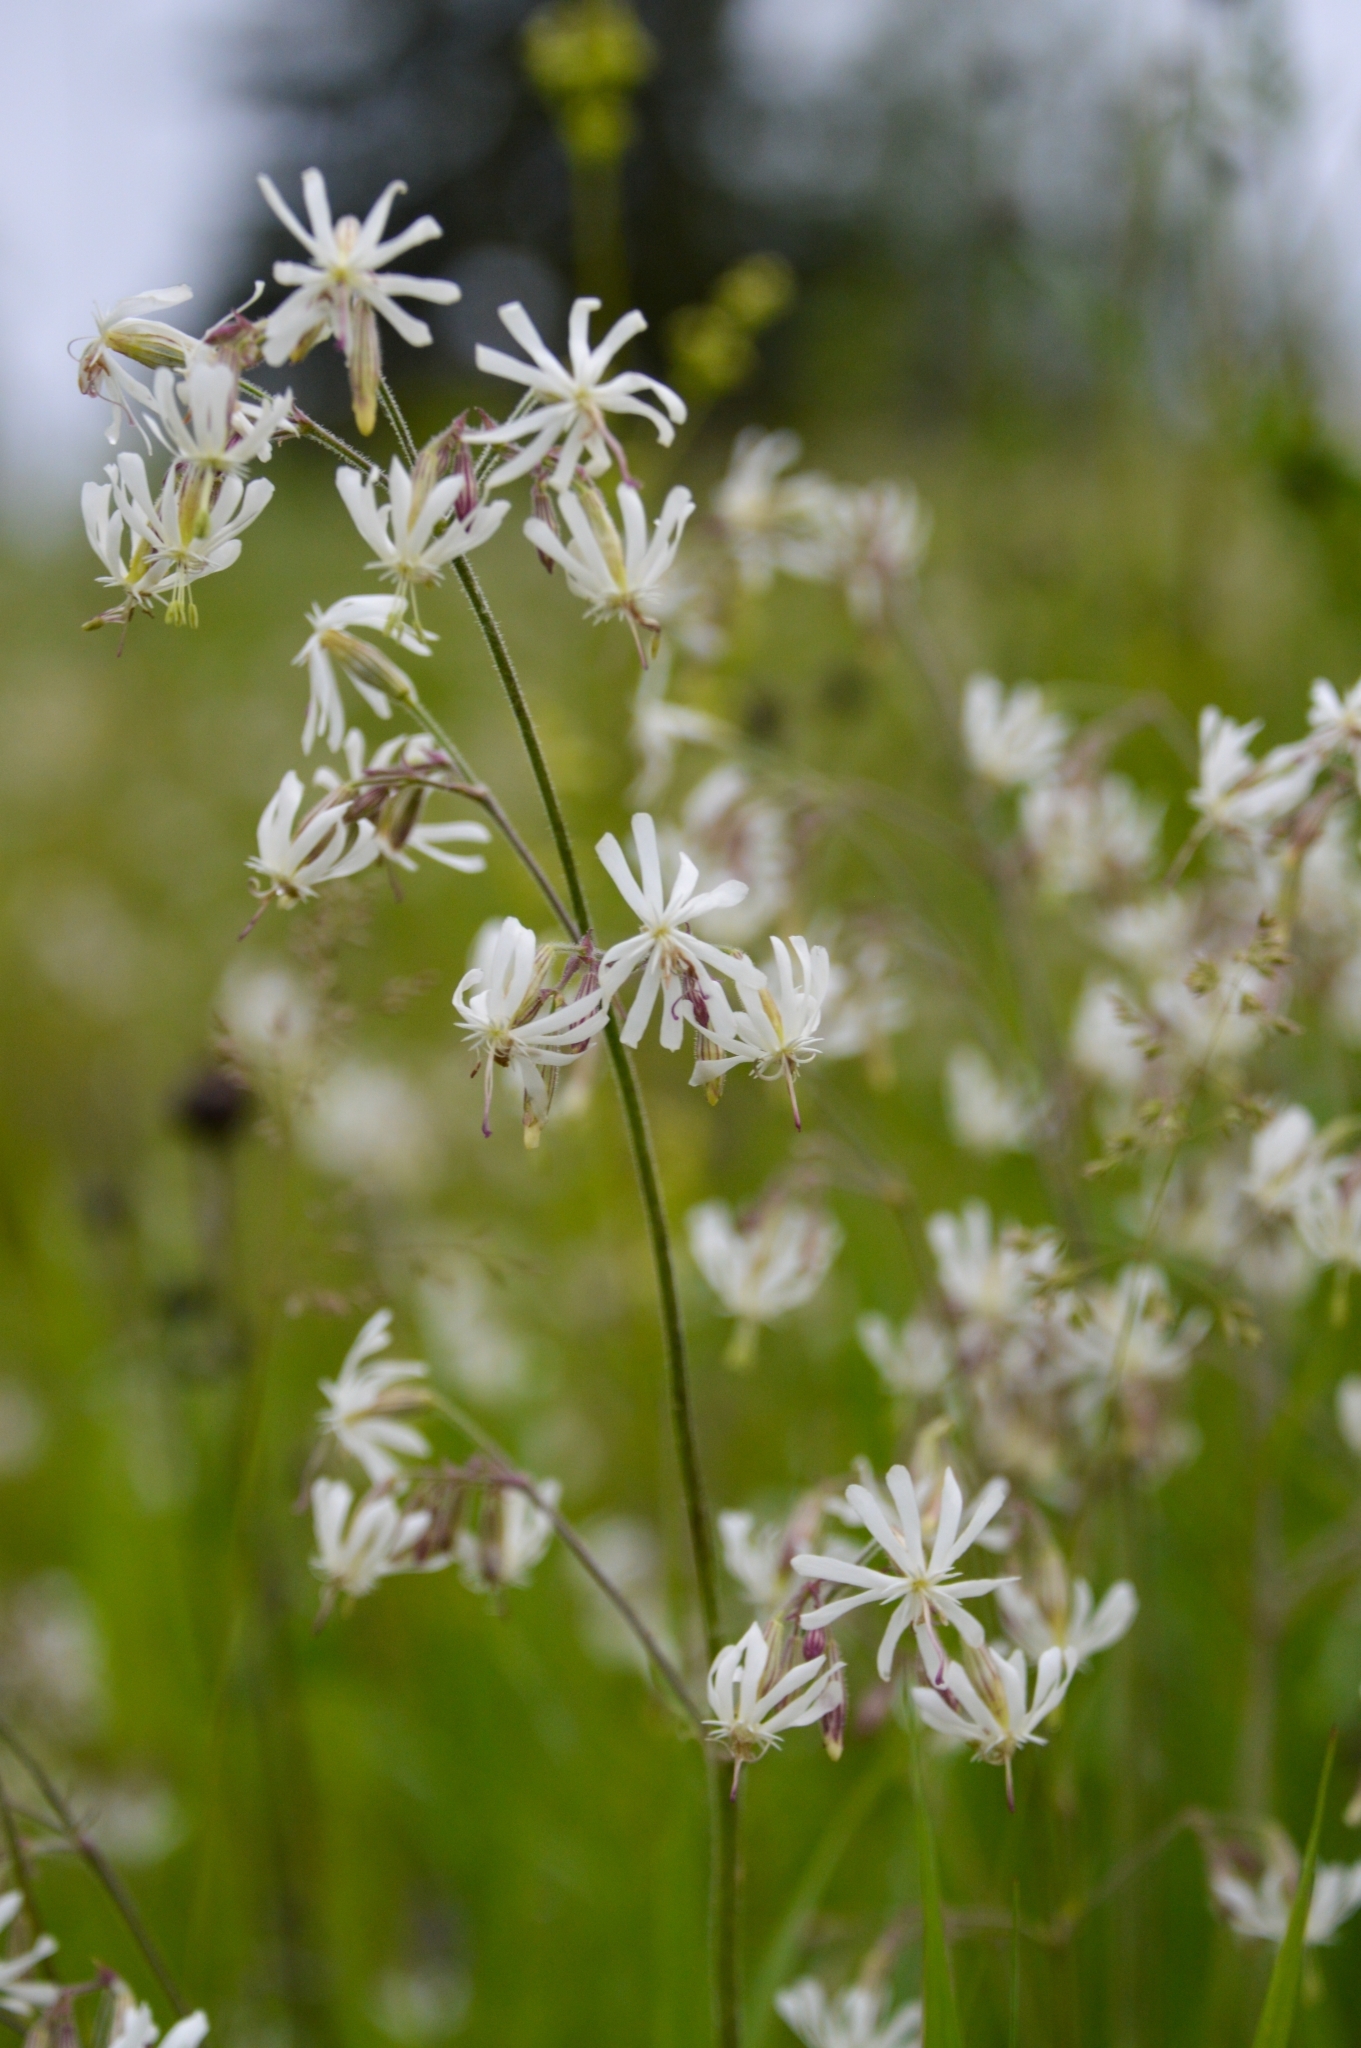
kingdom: Plantae
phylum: Tracheophyta
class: Magnoliopsida
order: Caryophyllales
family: Caryophyllaceae
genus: Silene
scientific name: Silene nutans
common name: Nottingham catchfly
